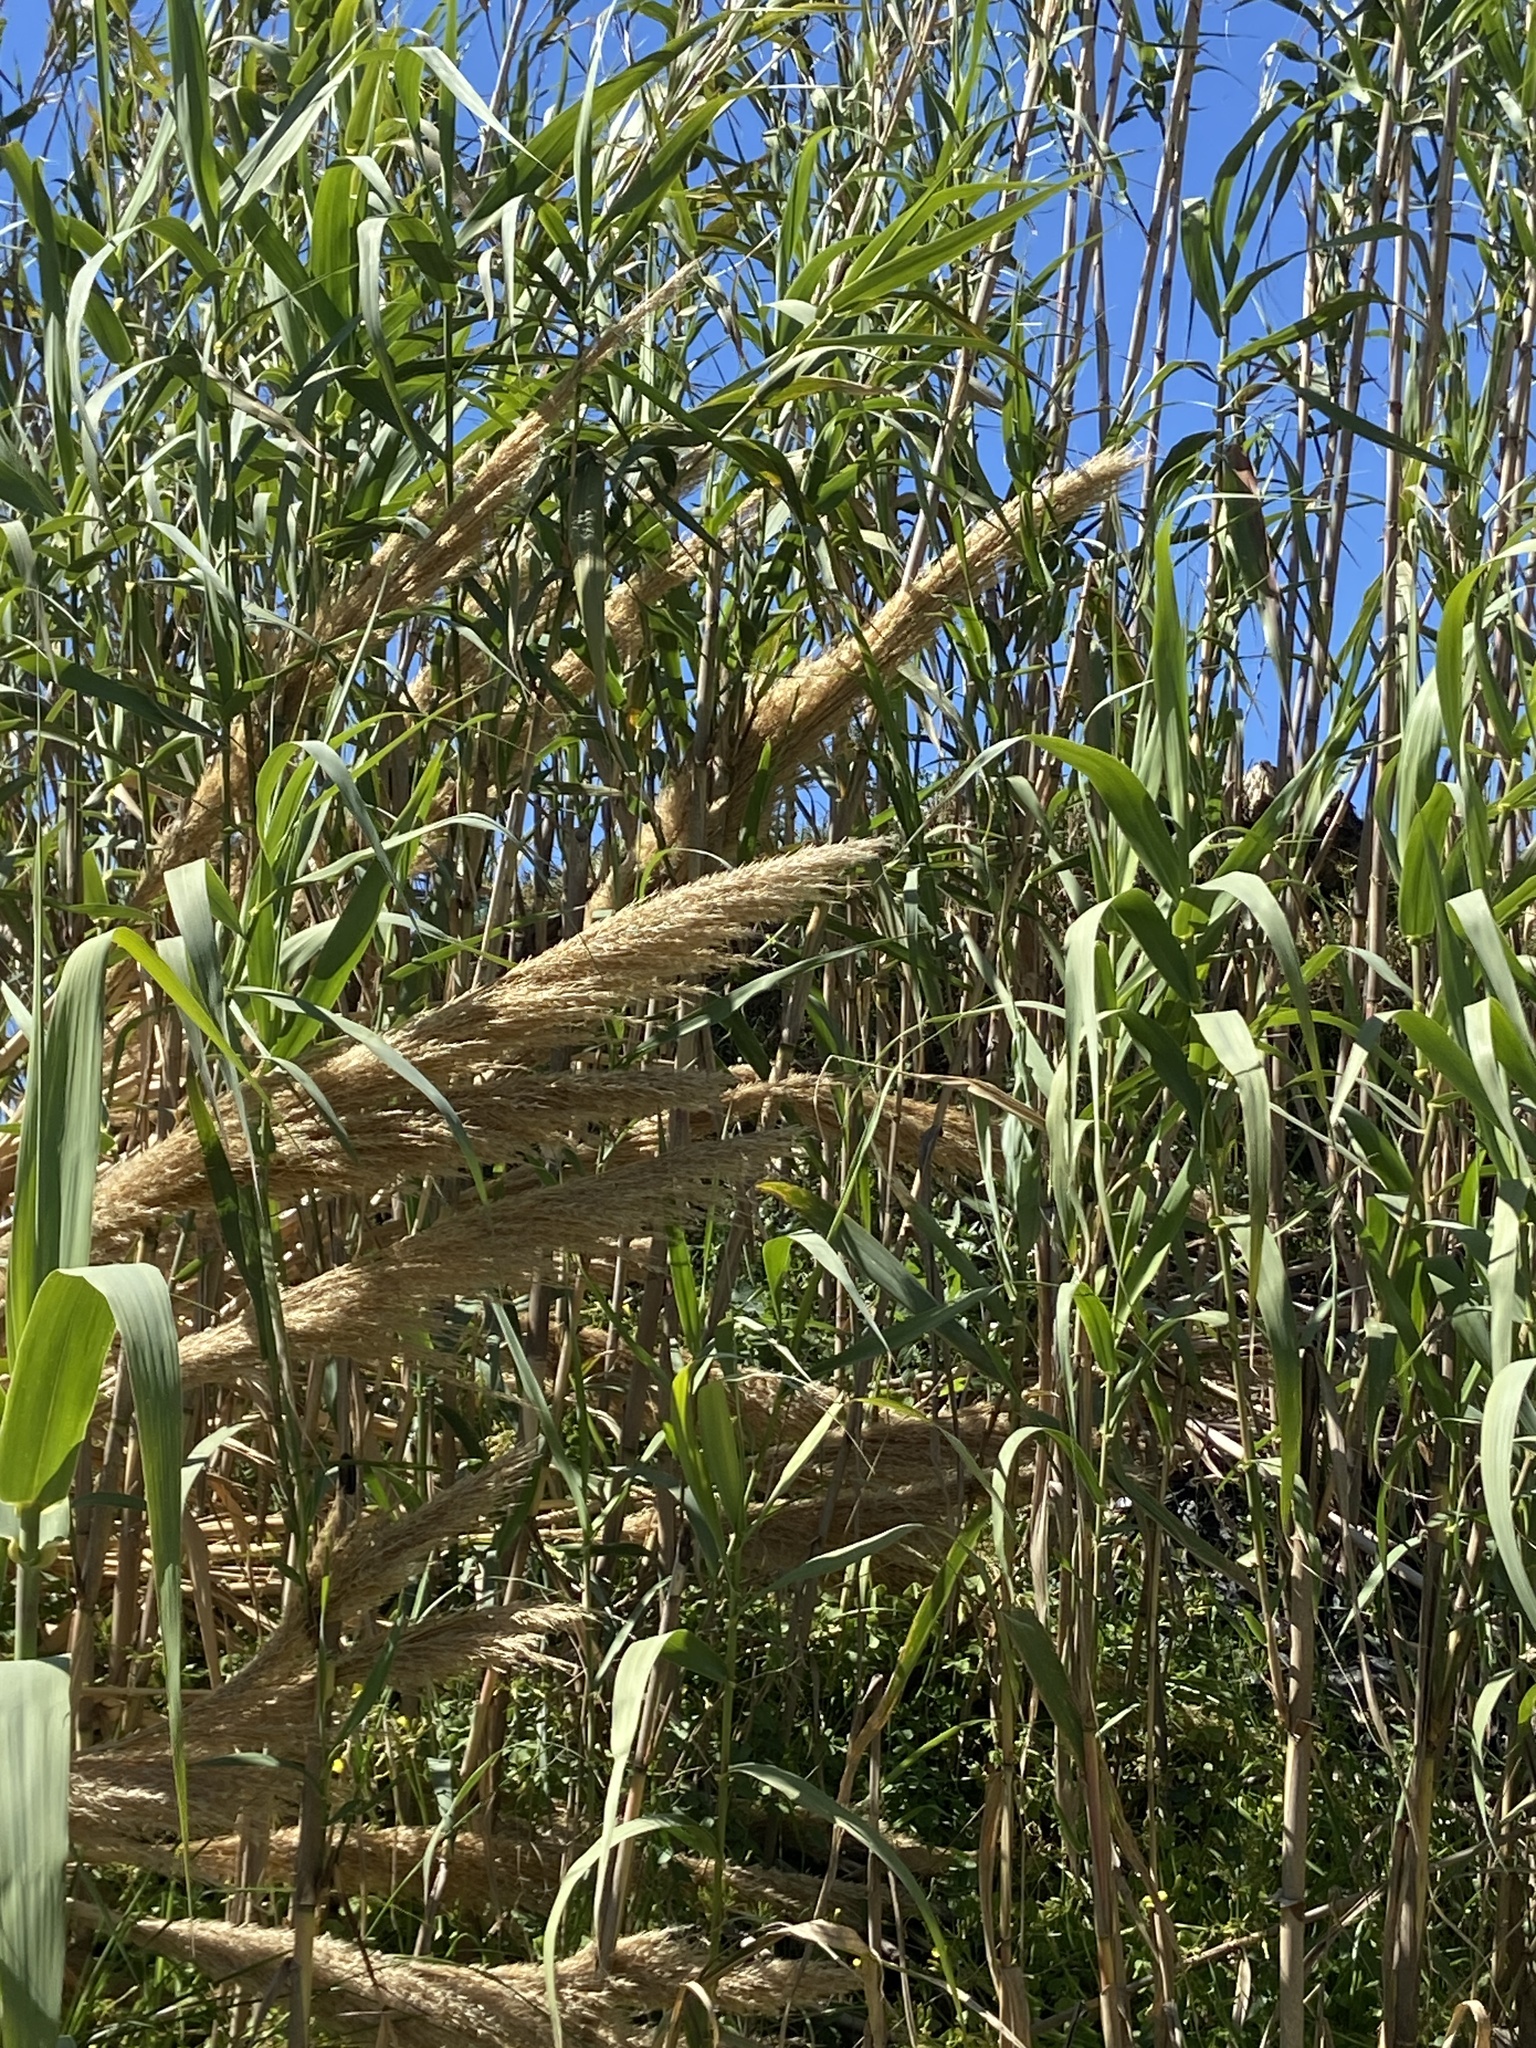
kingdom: Plantae
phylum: Tracheophyta
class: Liliopsida
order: Poales
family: Poaceae
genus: Arundo
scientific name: Arundo donax
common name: Giant reed
